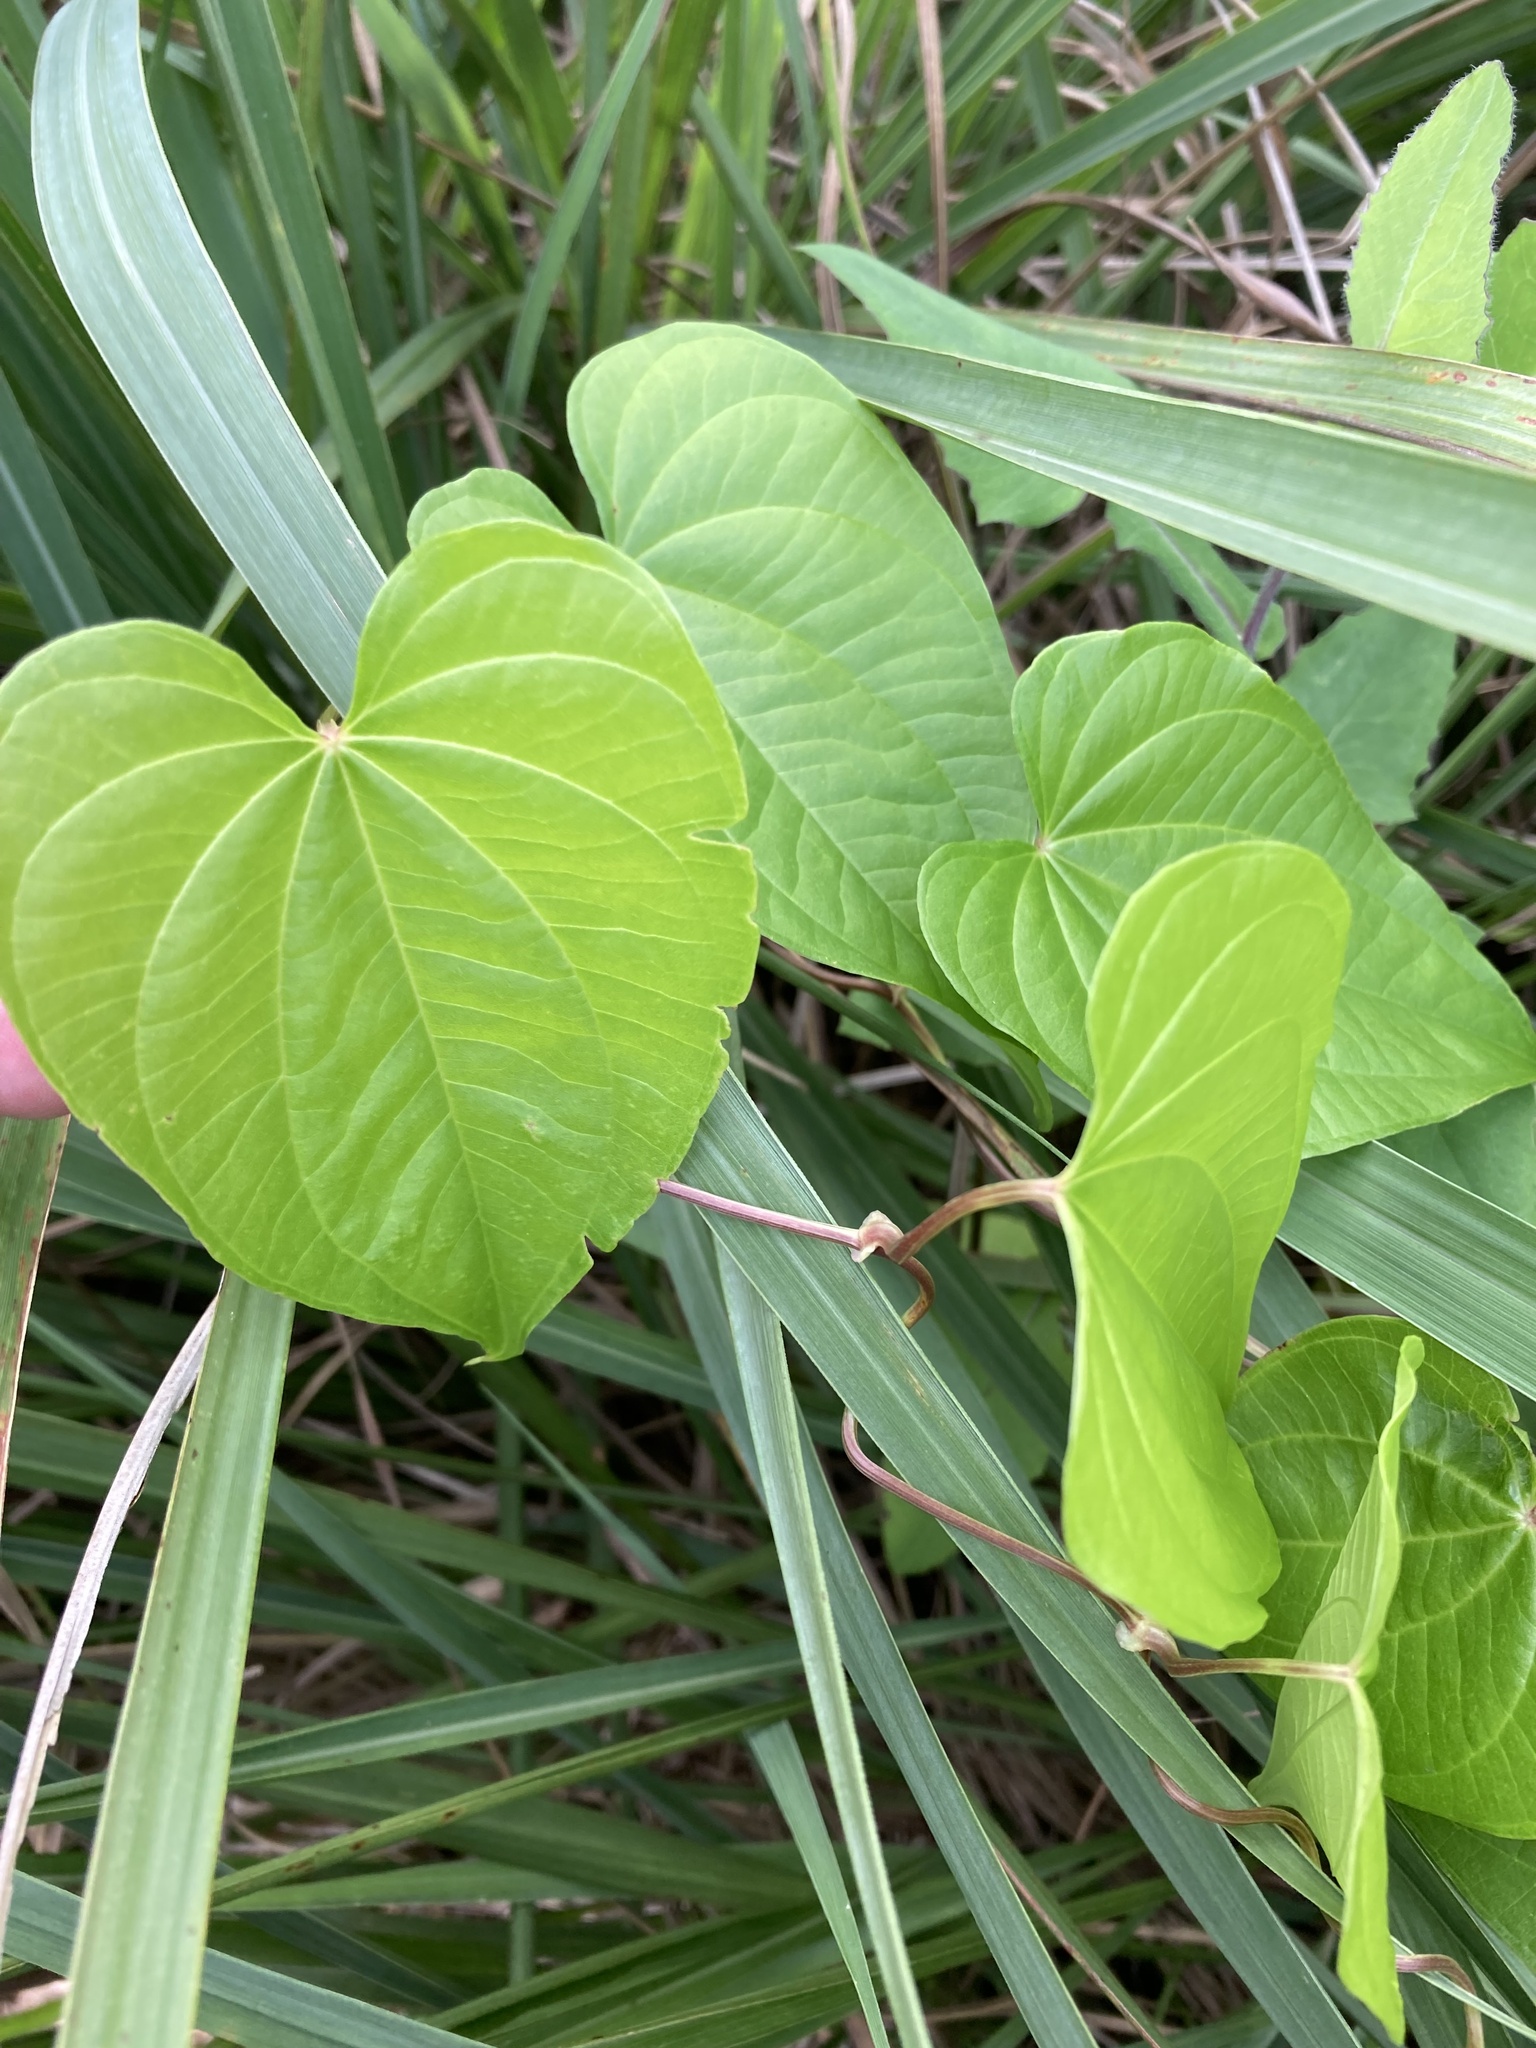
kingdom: Plantae
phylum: Tracheophyta
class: Liliopsida
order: Dioscoreales
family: Dioscoreaceae
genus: Dioscorea
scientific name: Dioscorea bulbifera
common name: Air yam
